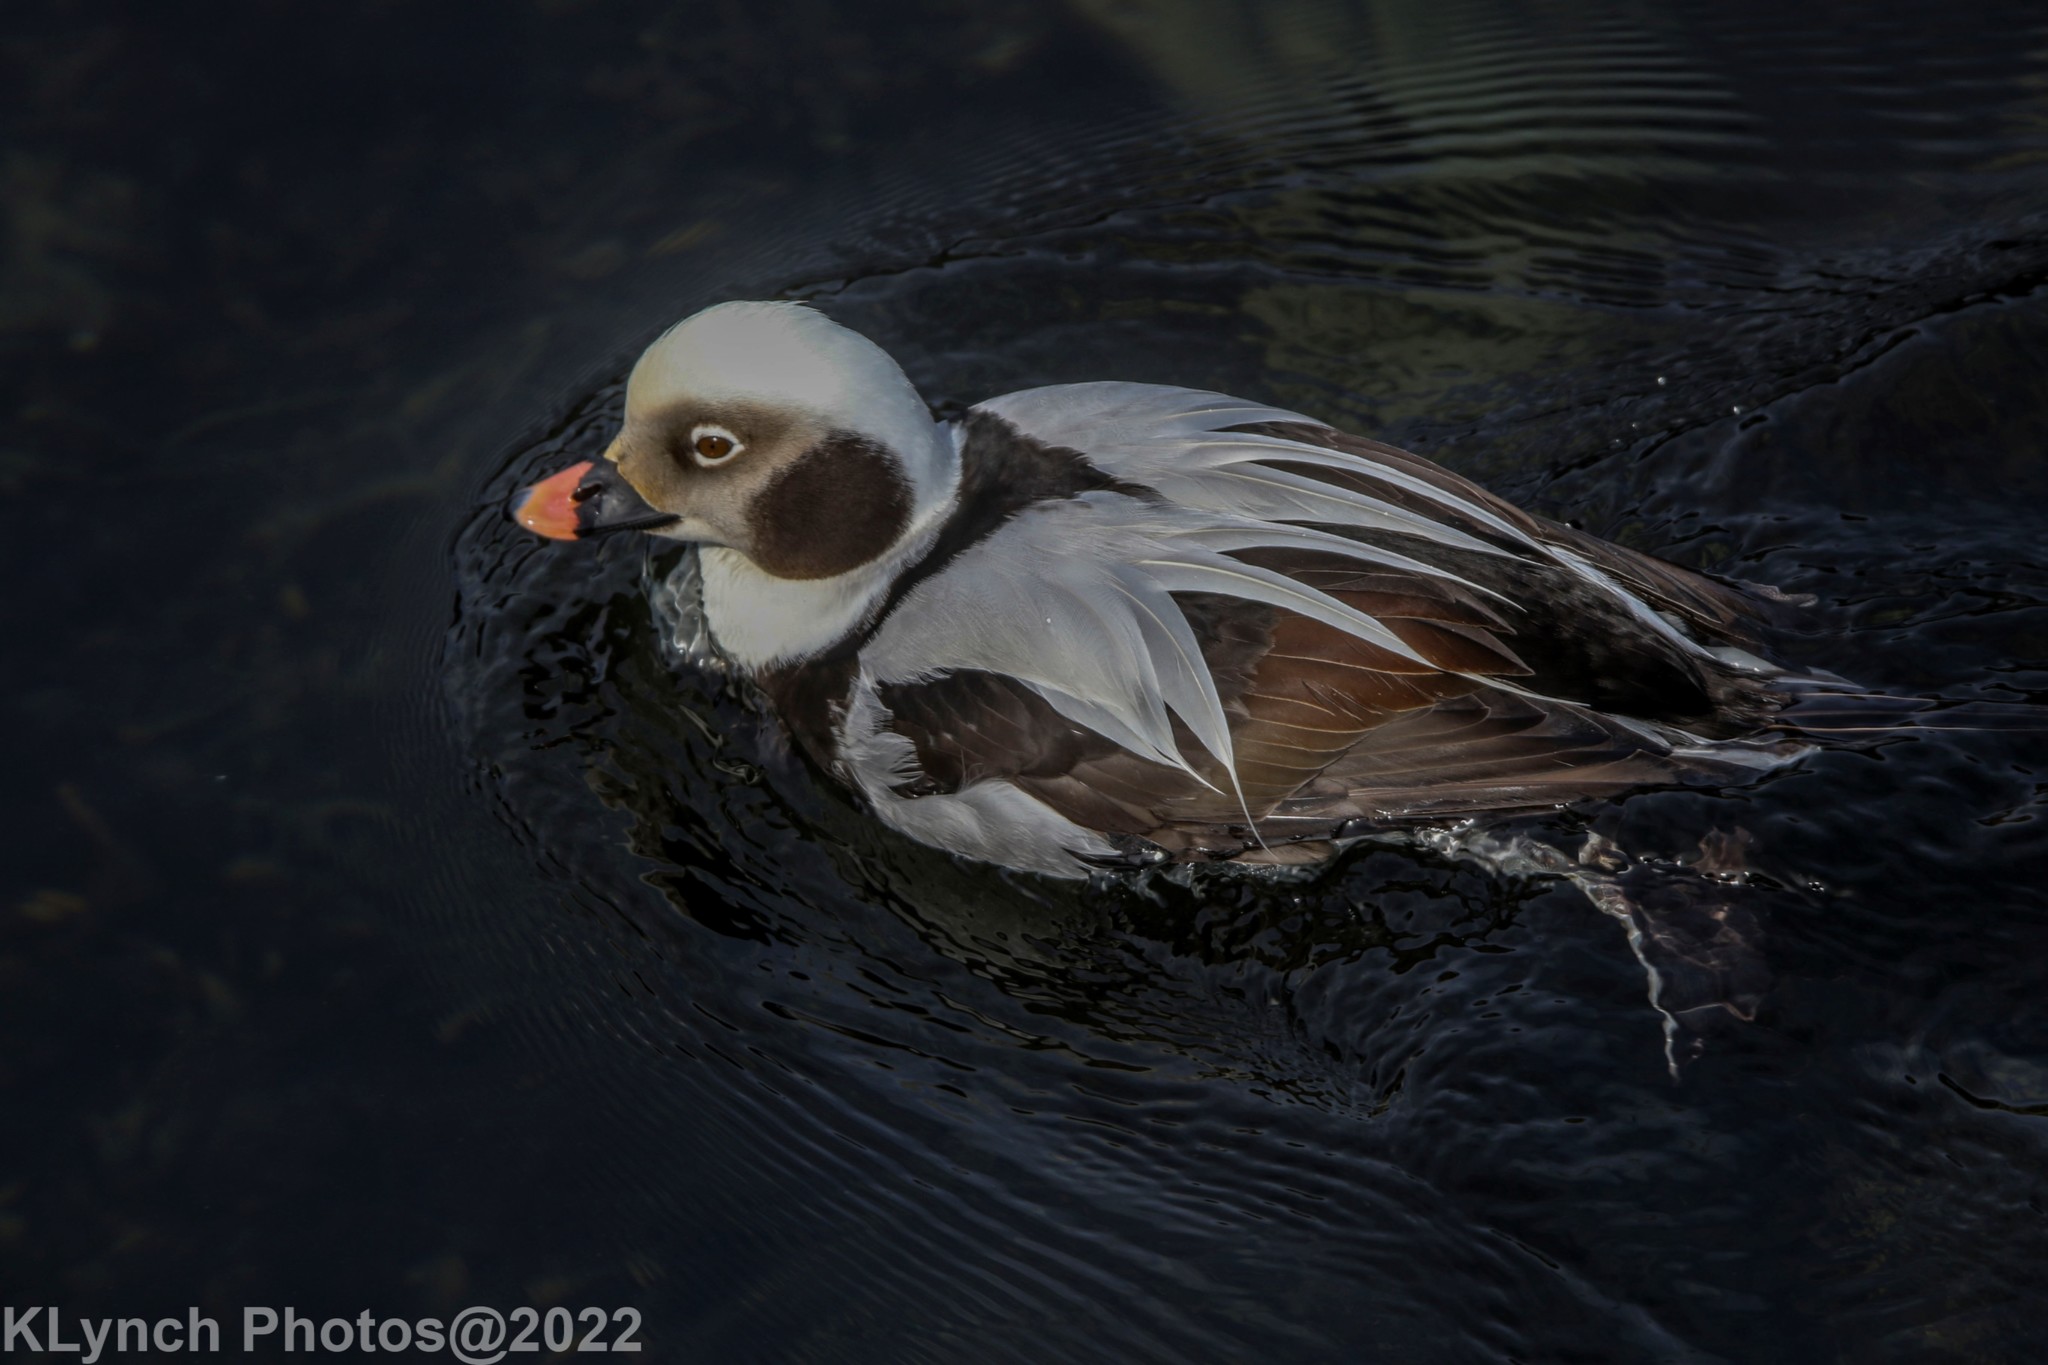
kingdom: Animalia
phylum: Chordata
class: Aves
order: Anseriformes
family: Anatidae
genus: Clangula
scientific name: Clangula hyemalis
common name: Long-tailed duck
